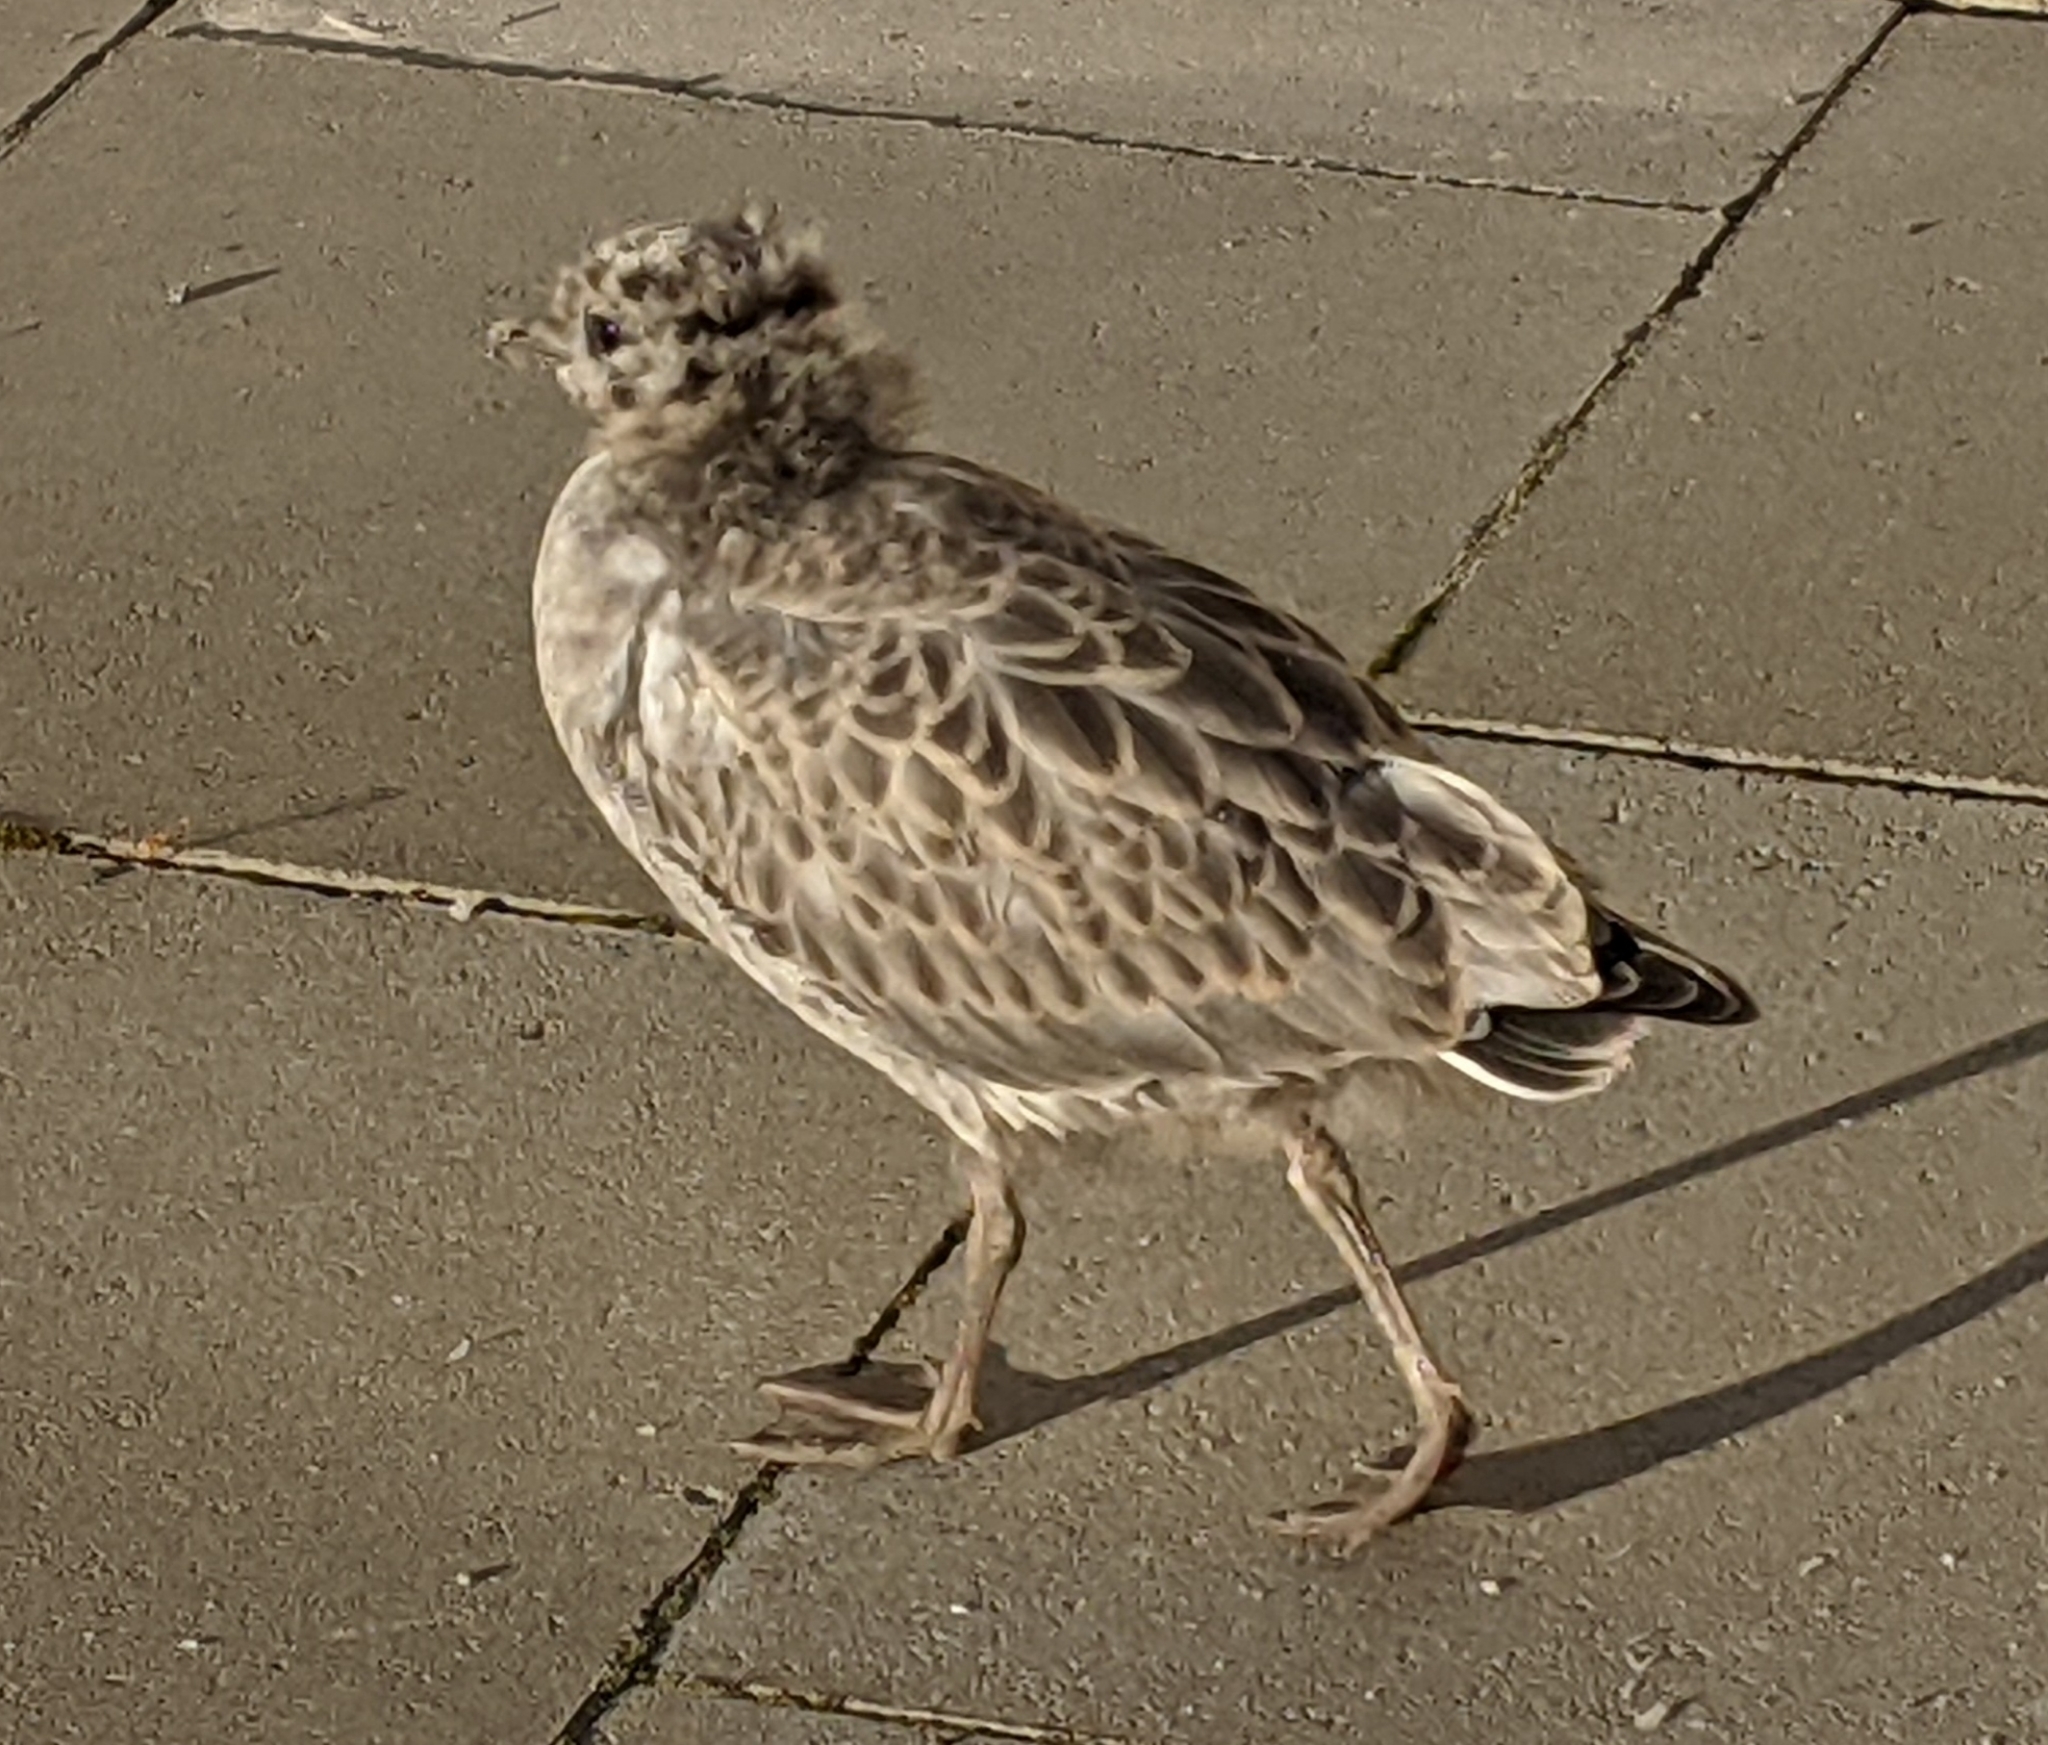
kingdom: Animalia
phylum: Chordata
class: Aves
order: Charadriiformes
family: Laridae
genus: Larus
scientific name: Larus canus
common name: Mew gull
